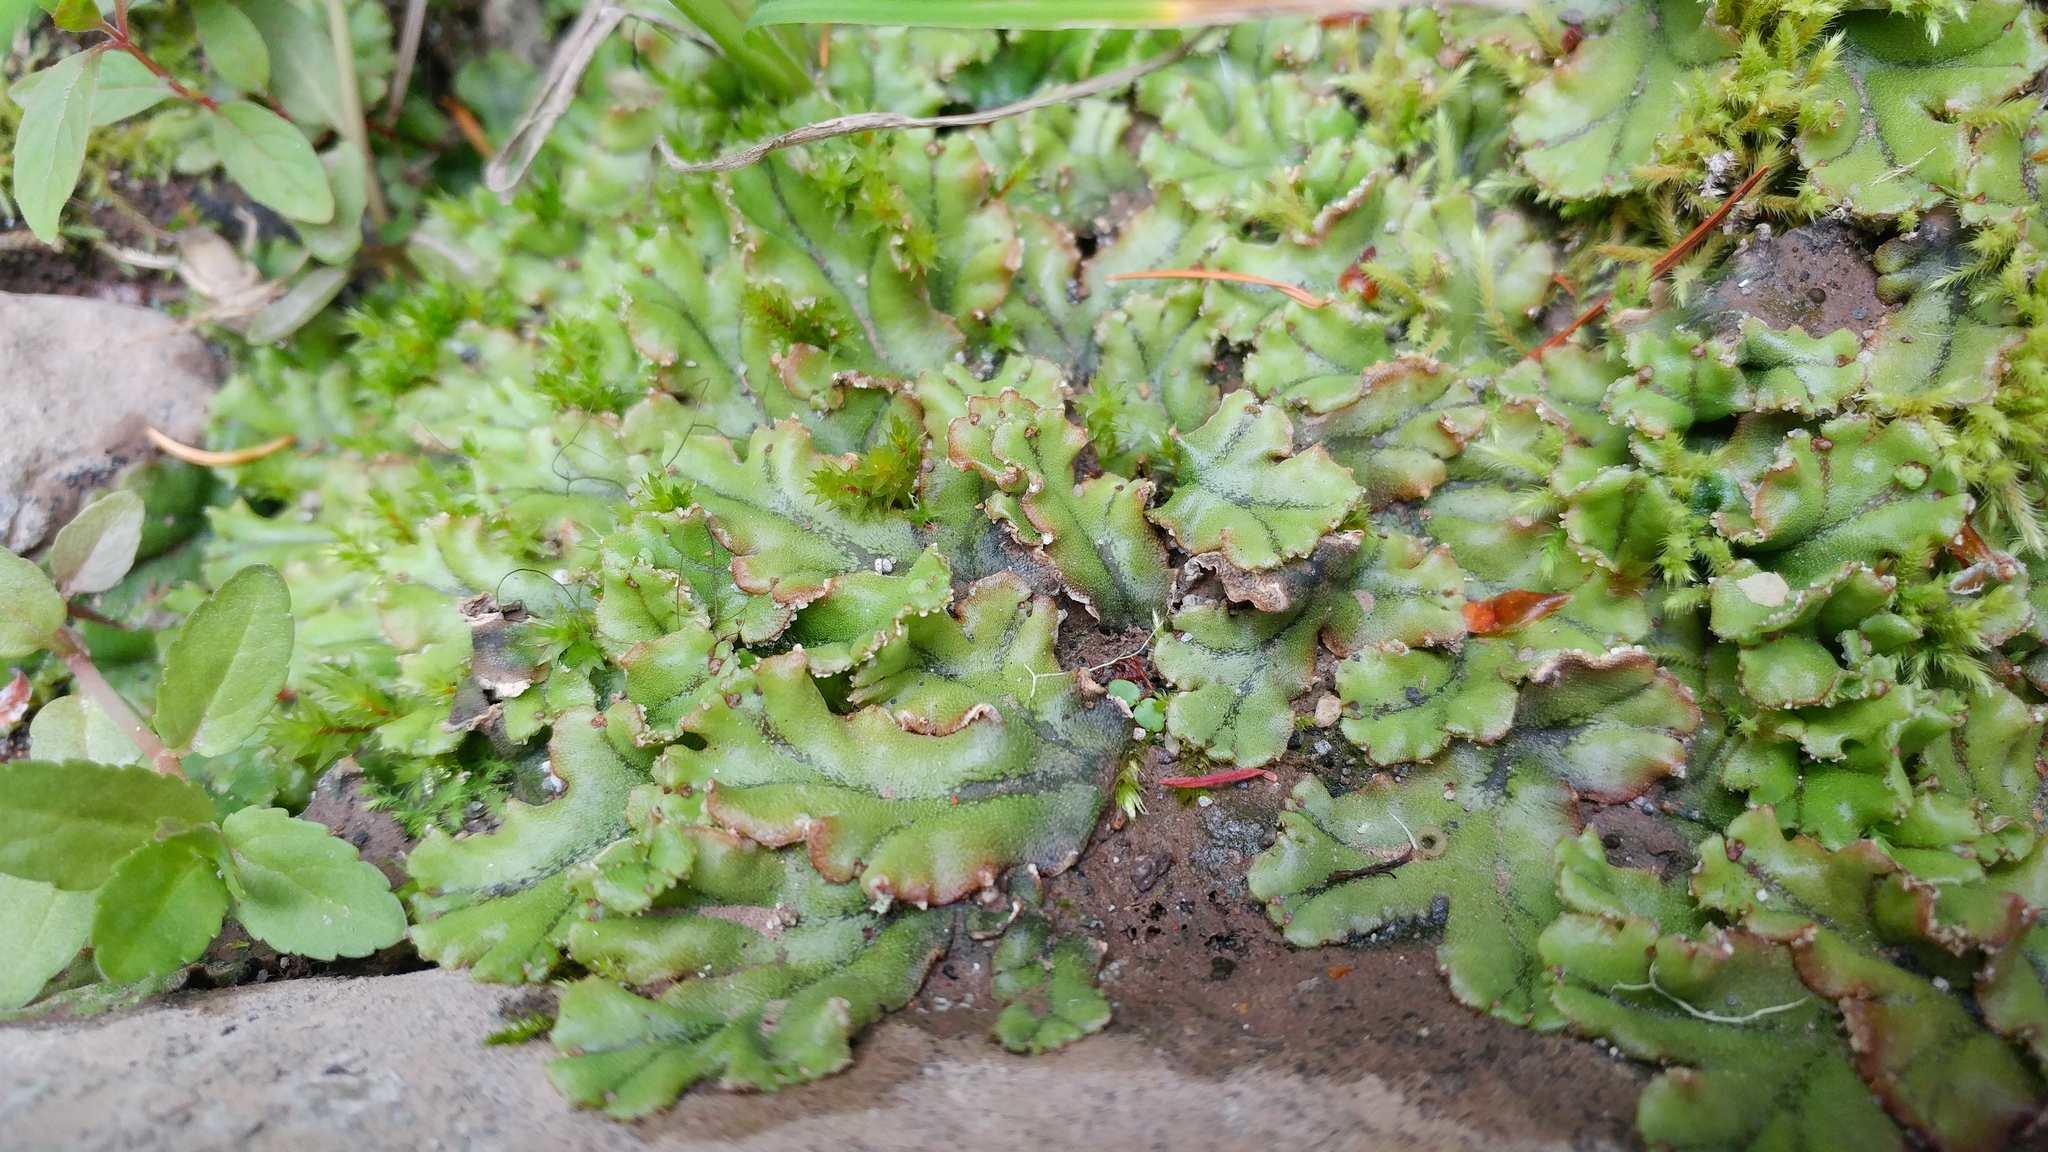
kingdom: Plantae
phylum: Marchantiophyta
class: Marchantiopsida
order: Marchantiales
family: Marchantiaceae
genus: Marchantia
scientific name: Marchantia polymorpha
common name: Common liverwort
